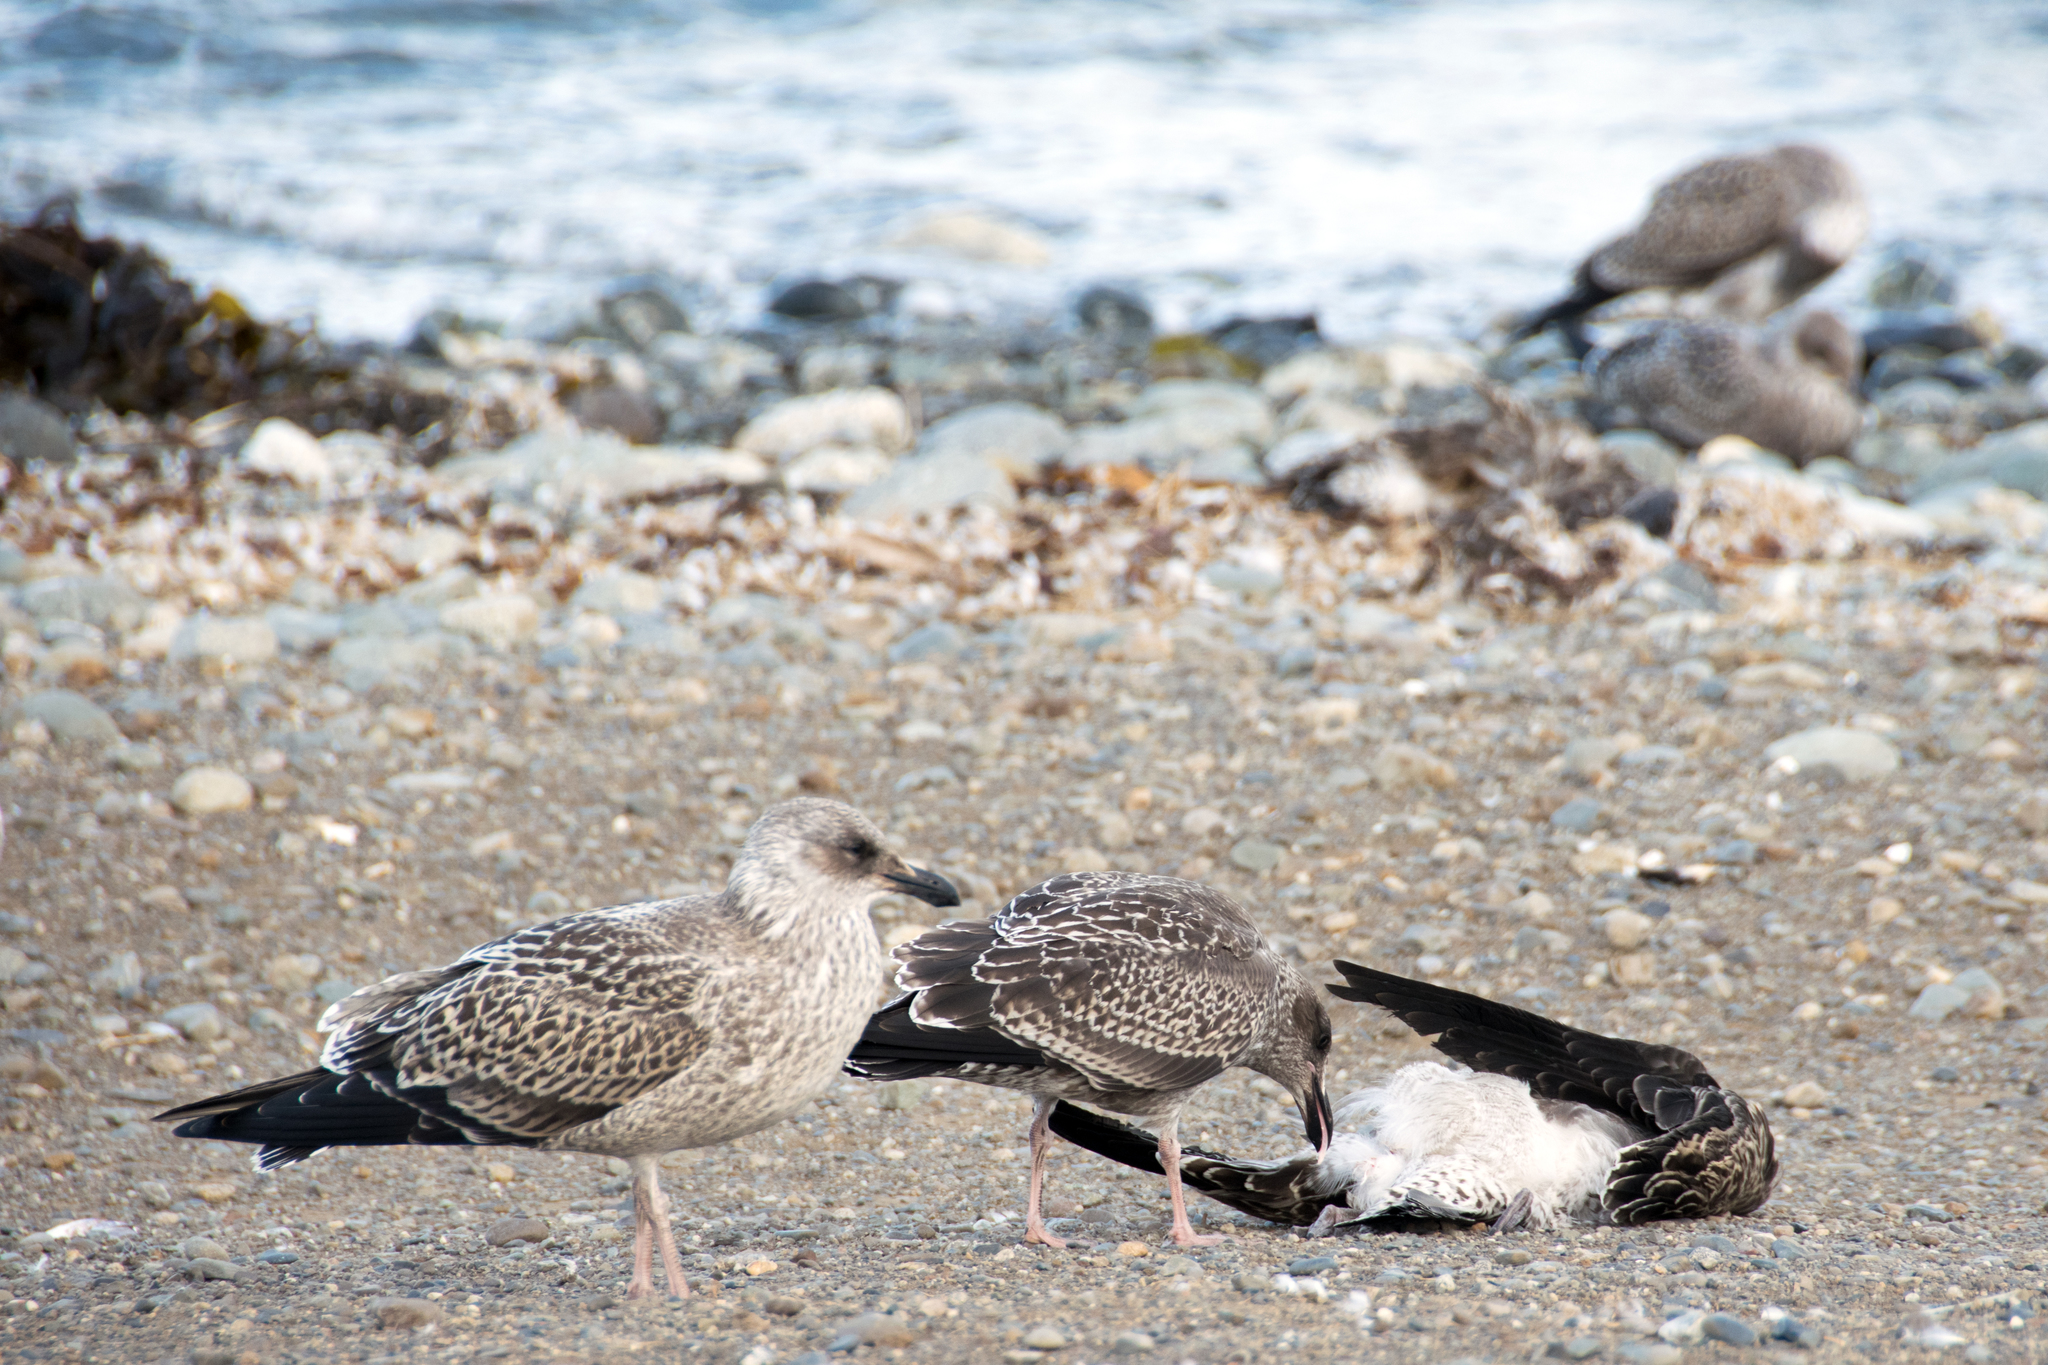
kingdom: Animalia
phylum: Chordata
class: Aves
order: Charadriiformes
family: Laridae
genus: Larus
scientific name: Larus dominicanus
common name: Kelp gull
